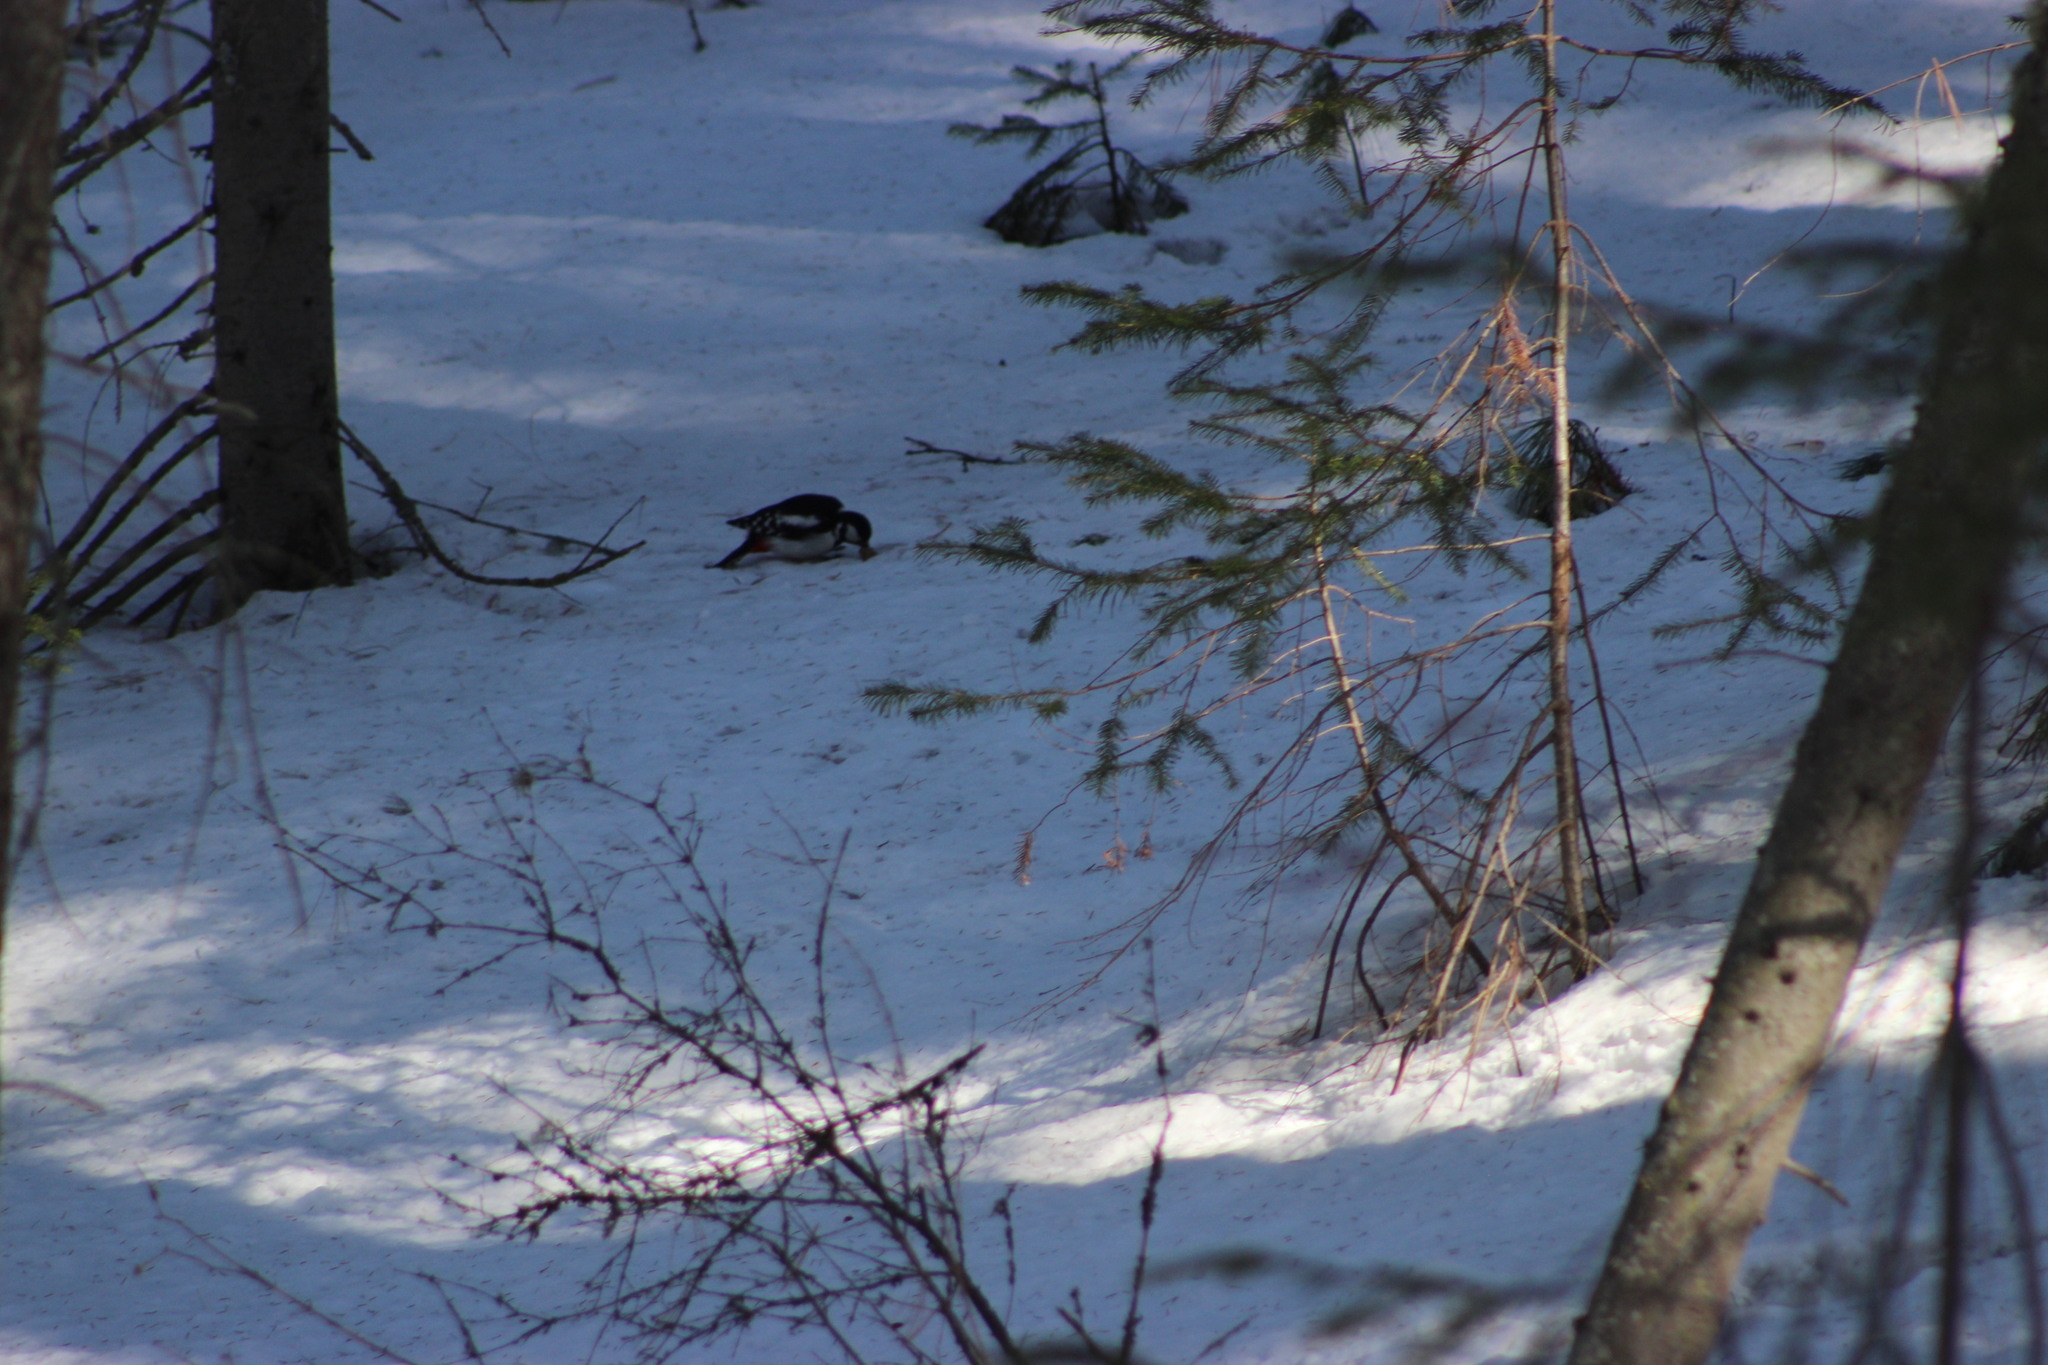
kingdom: Animalia
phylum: Chordata
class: Aves
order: Piciformes
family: Picidae
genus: Dendrocopos
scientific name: Dendrocopos major
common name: Great spotted woodpecker
